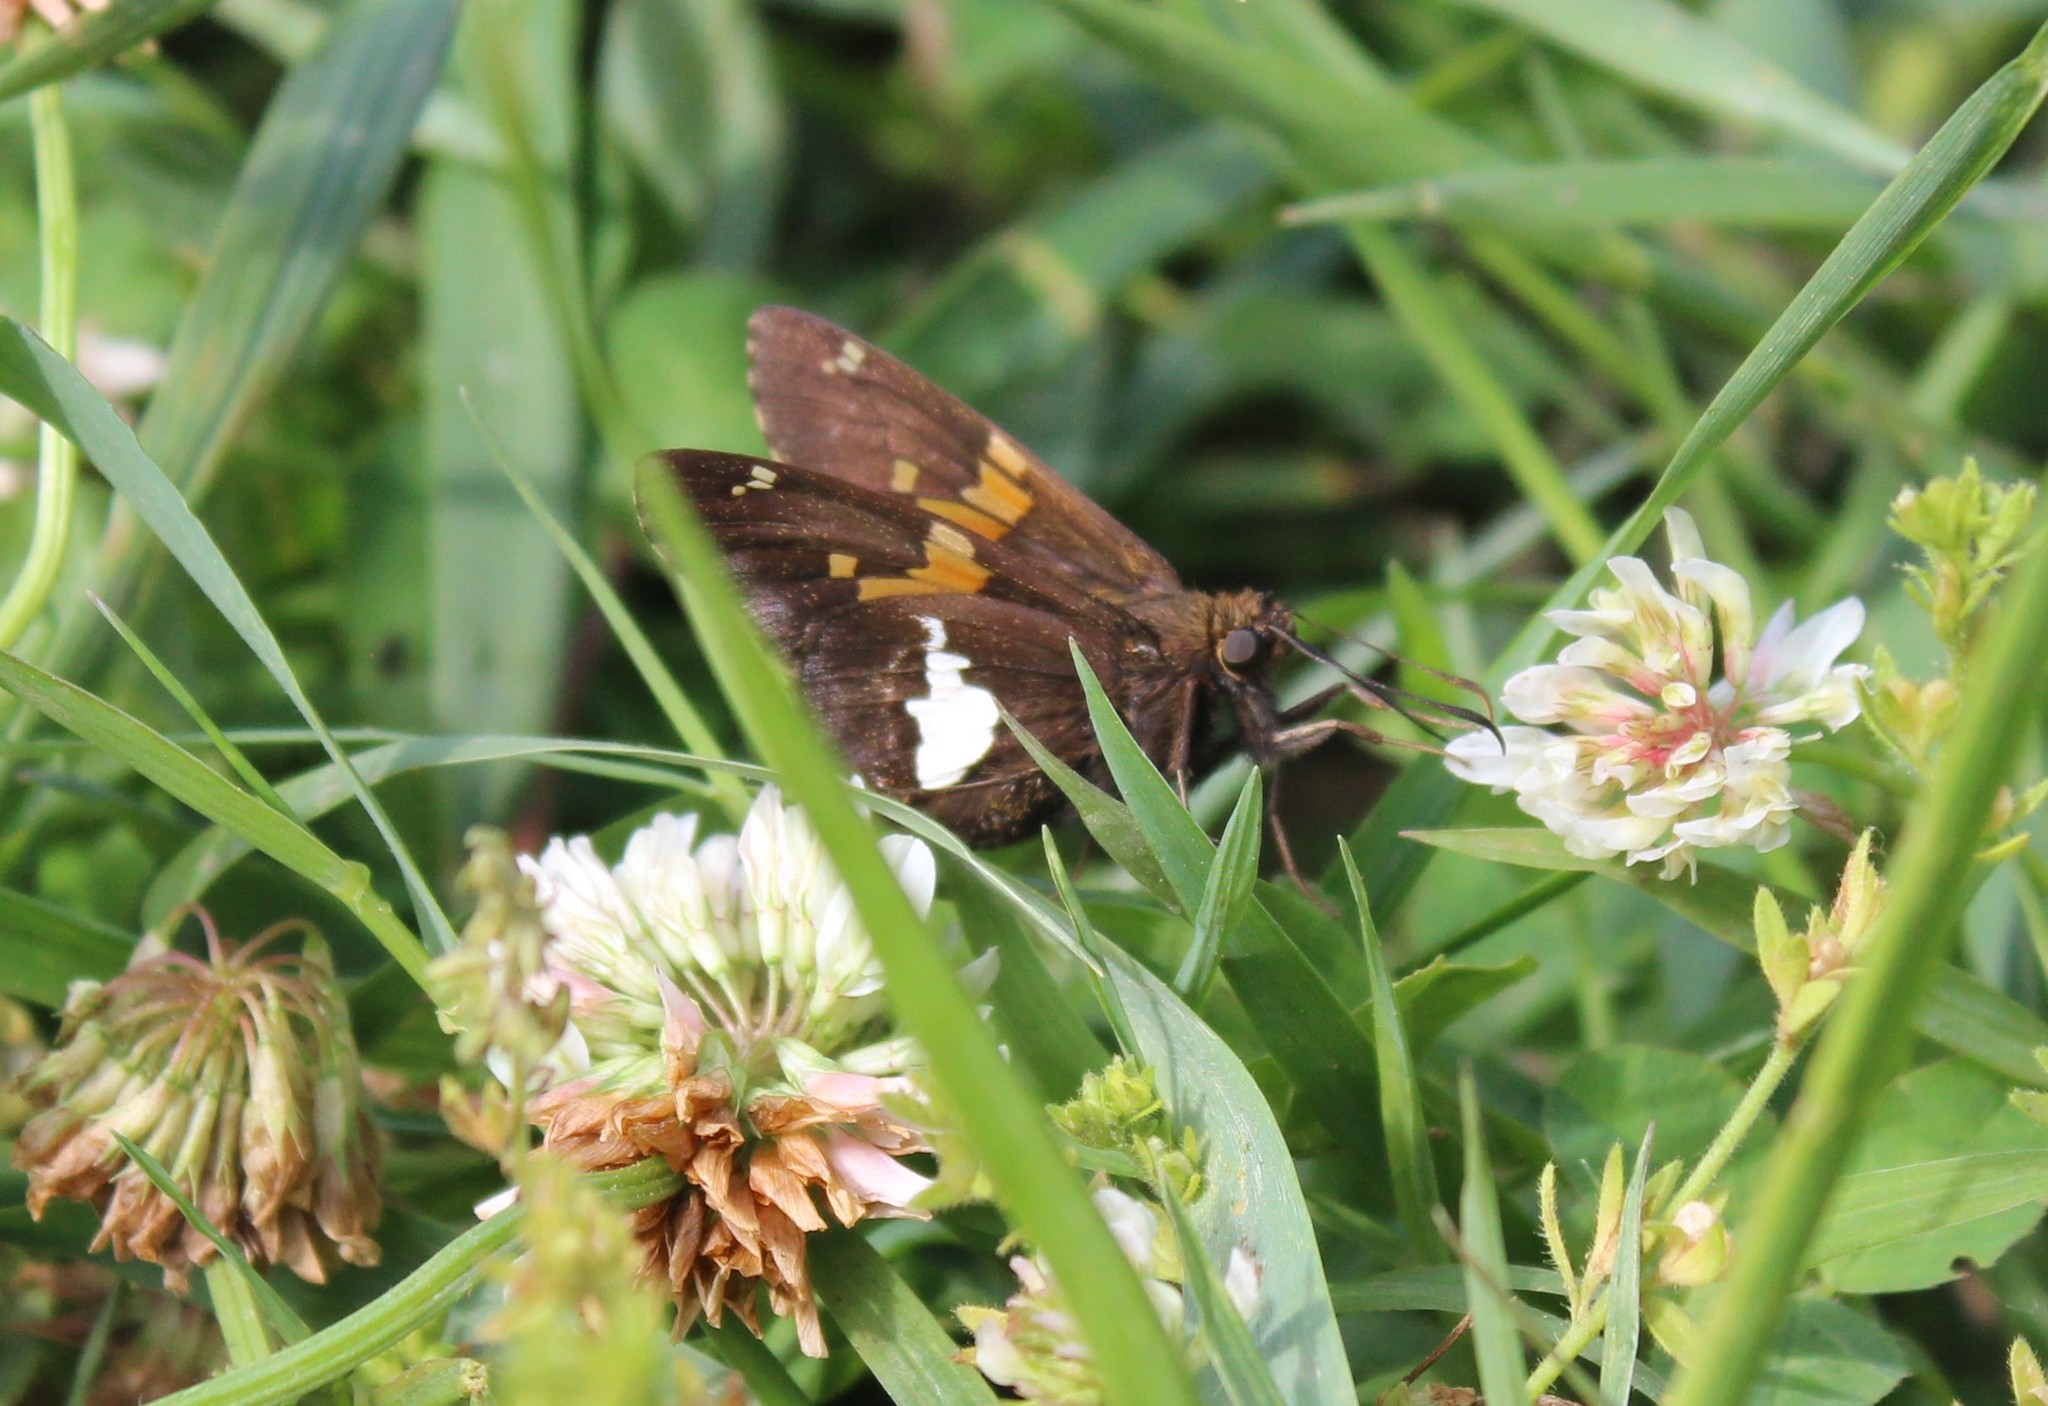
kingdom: Animalia
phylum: Arthropoda
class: Insecta
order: Lepidoptera
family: Hesperiidae
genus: Epargyreus
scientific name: Epargyreus clarus
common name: Silver-spotted skipper
